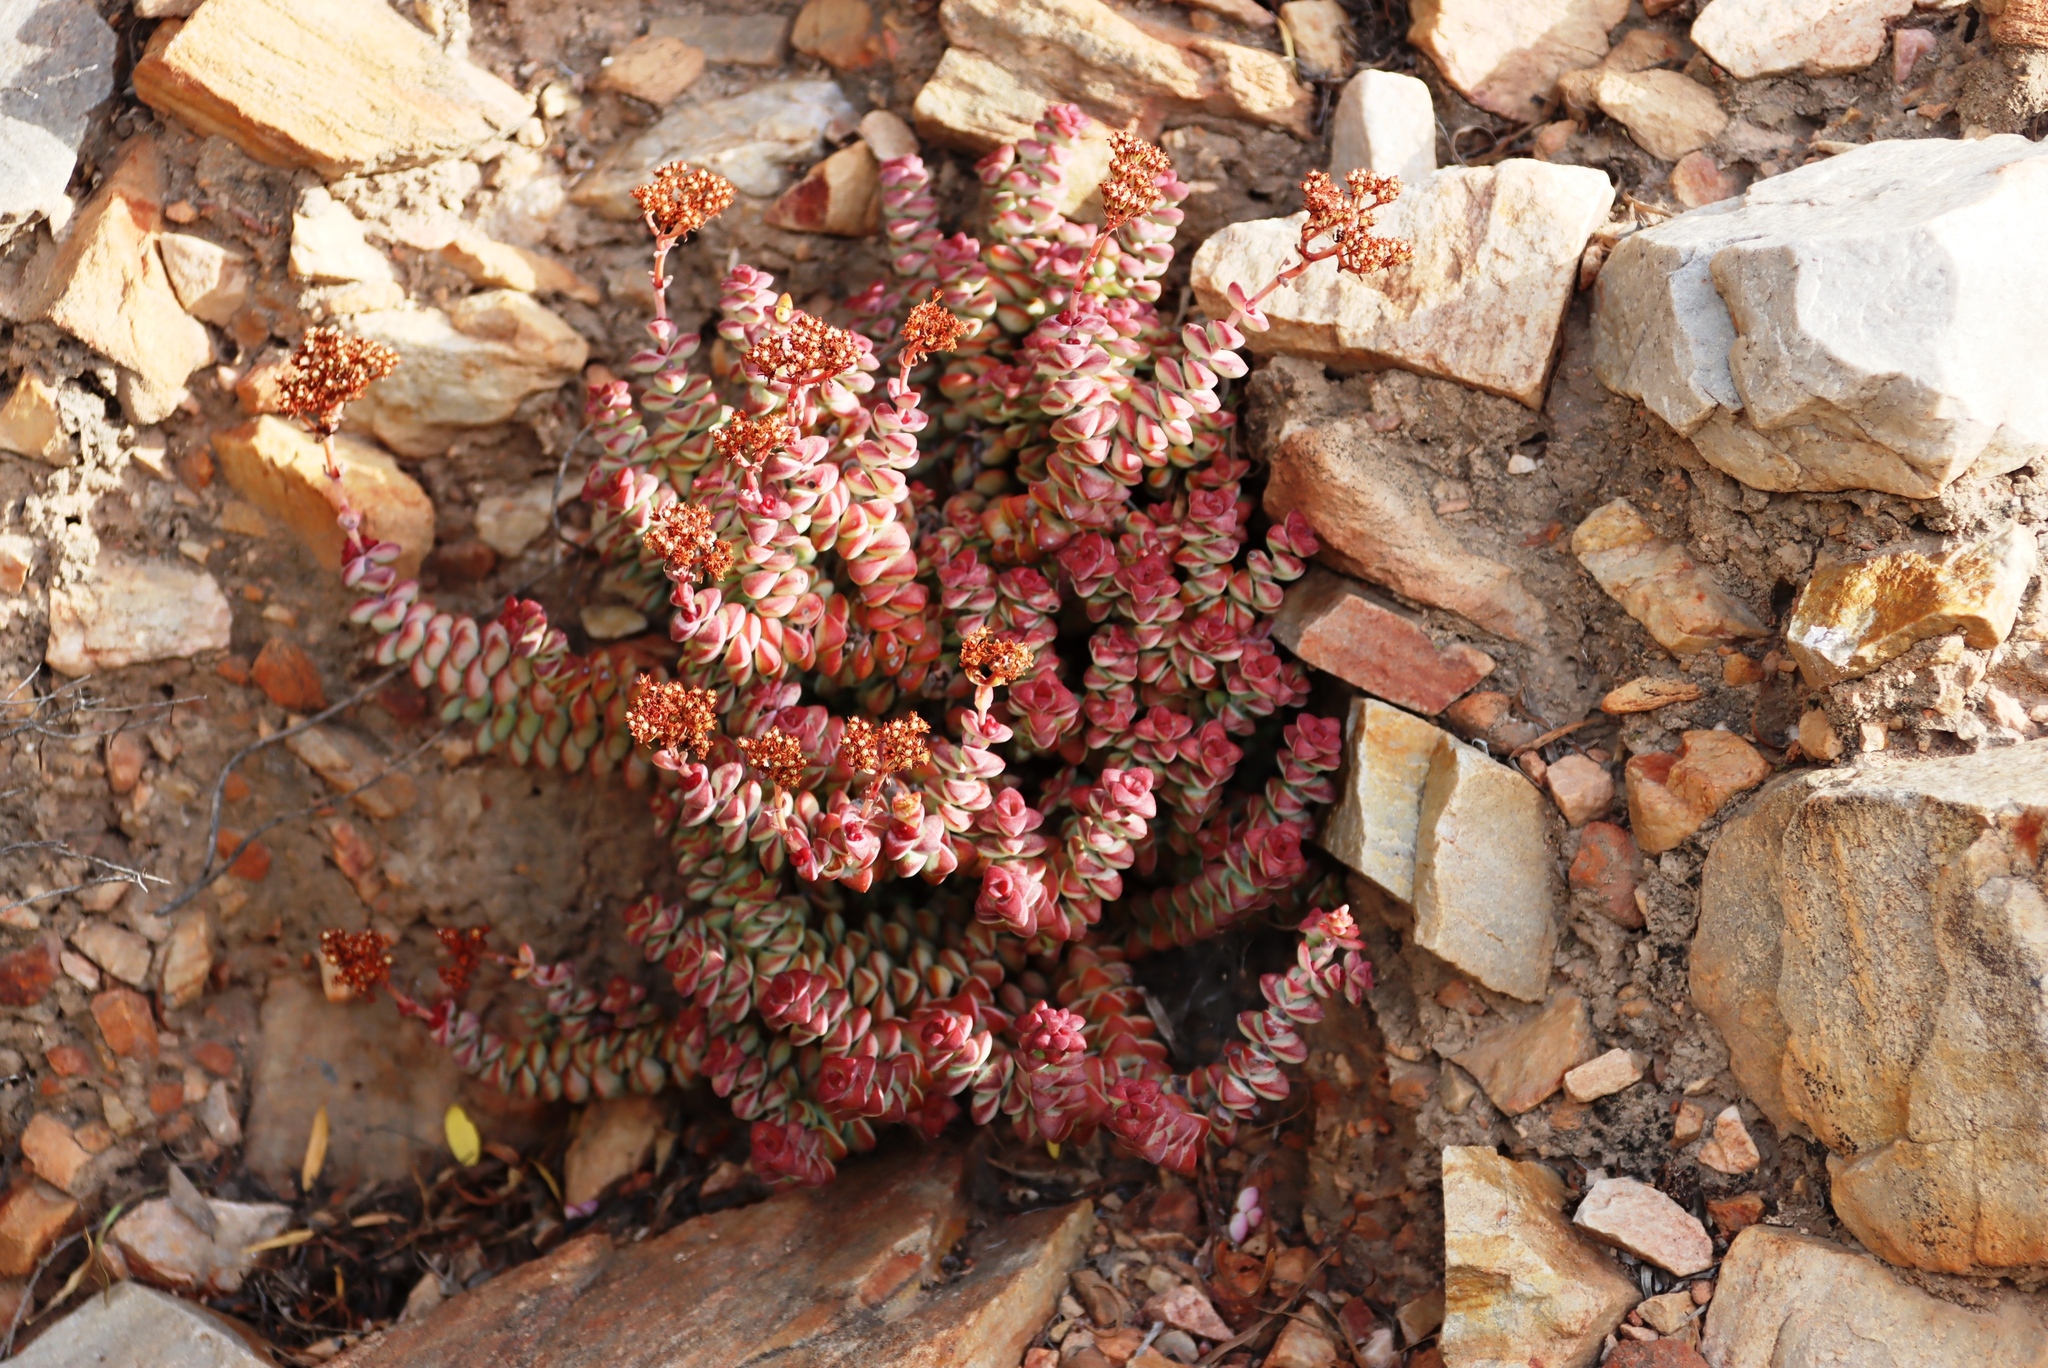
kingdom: Plantae
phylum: Tracheophyta
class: Magnoliopsida
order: Saxifragales
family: Crassulaceae
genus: Crassula
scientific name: Crassula rupestris
